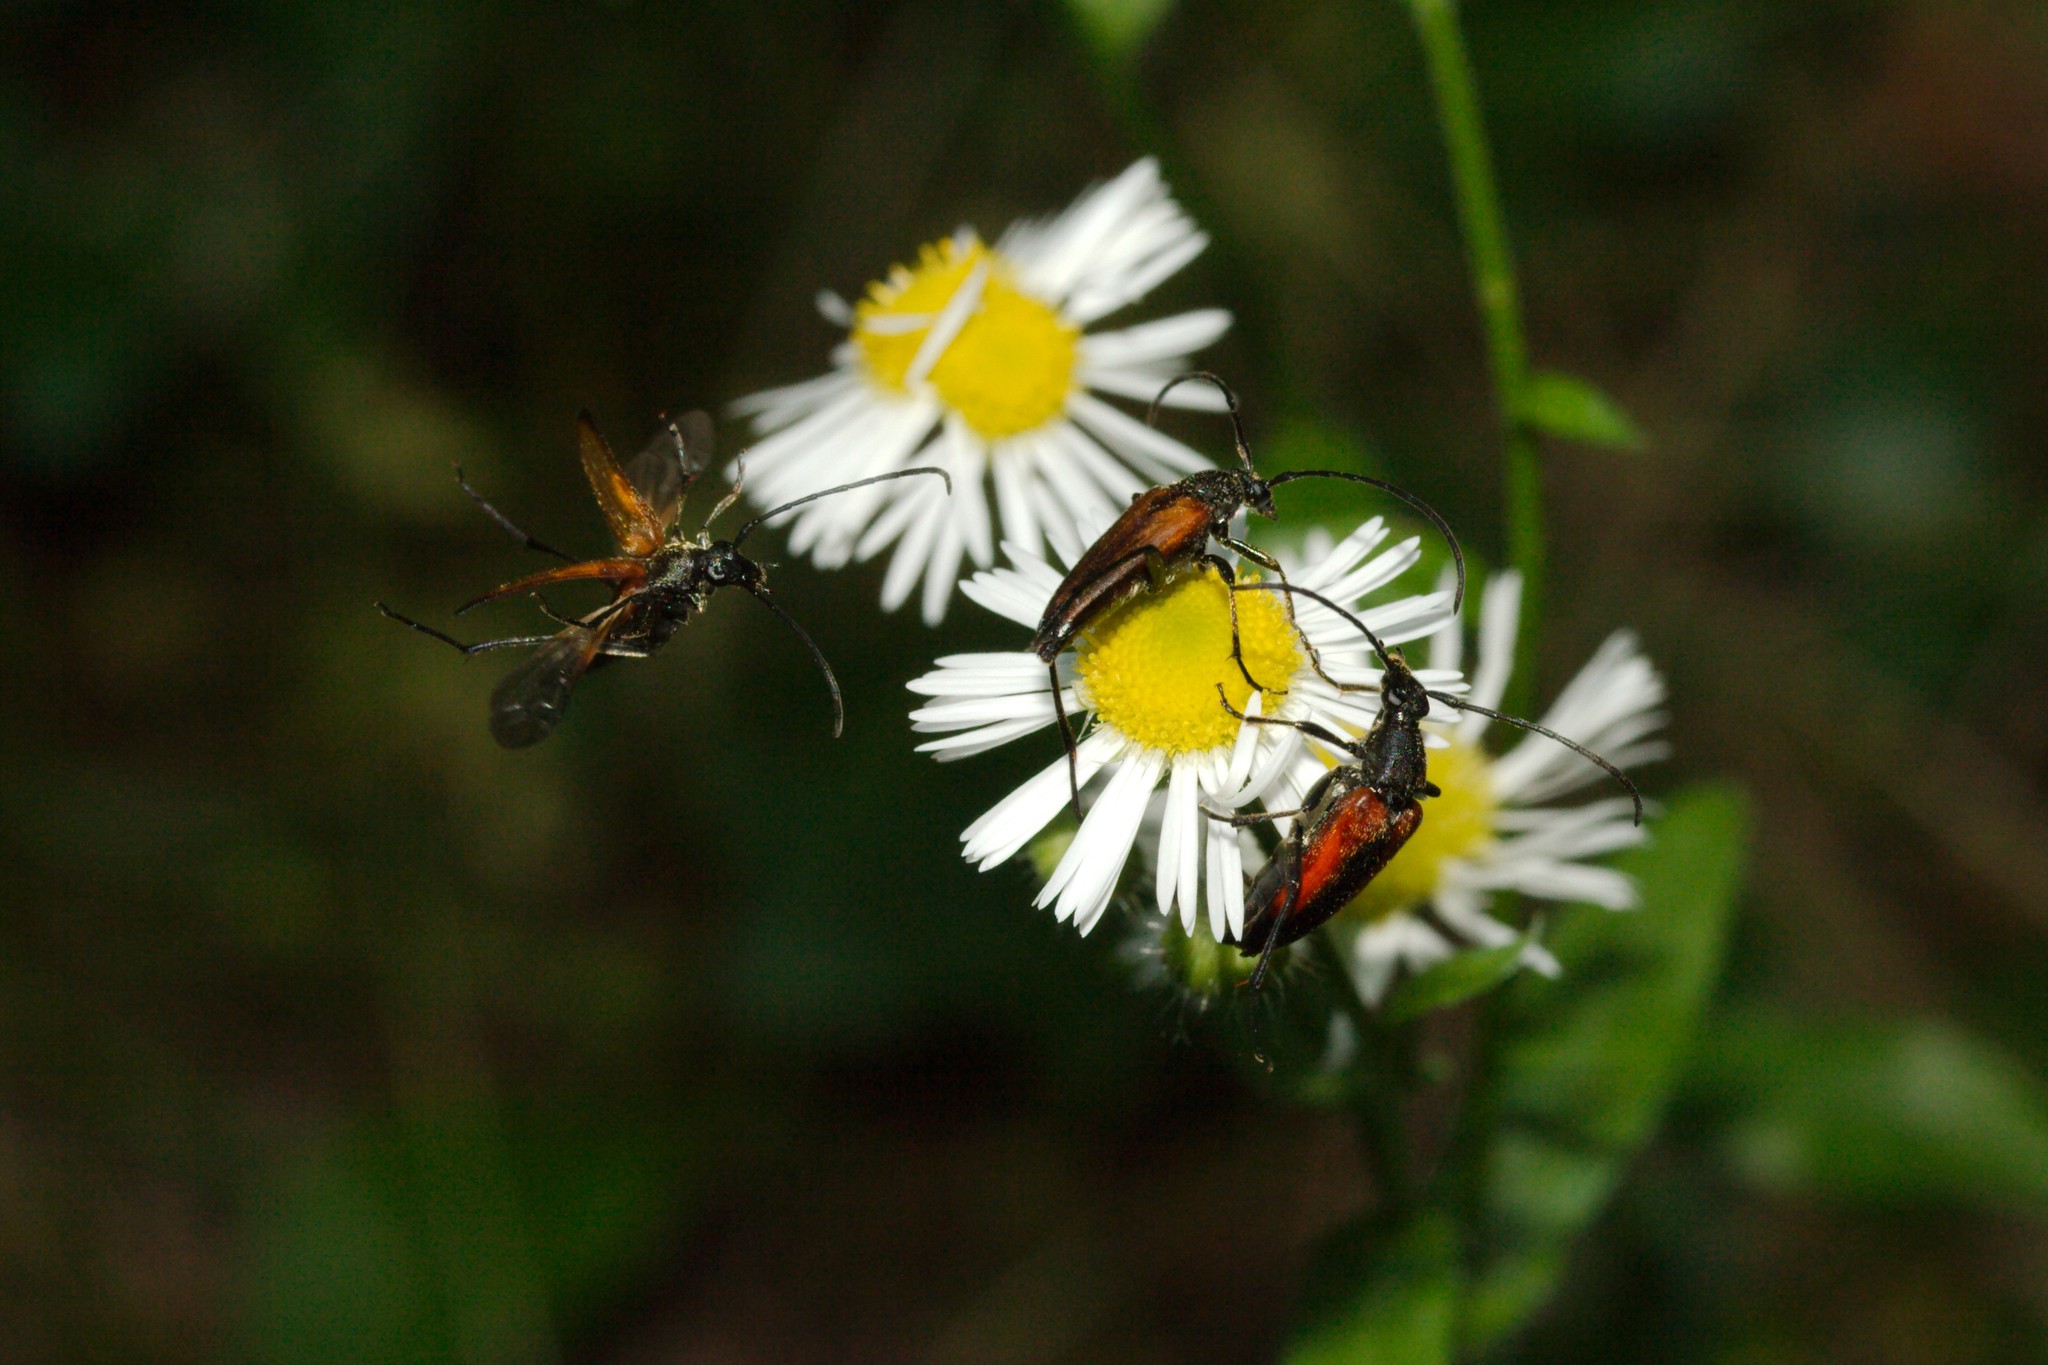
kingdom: Animalia
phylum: Arthropoda
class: Insecta
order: Coleoptera
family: Cerambycidae
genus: Stenurella
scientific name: Stenurella melanura
